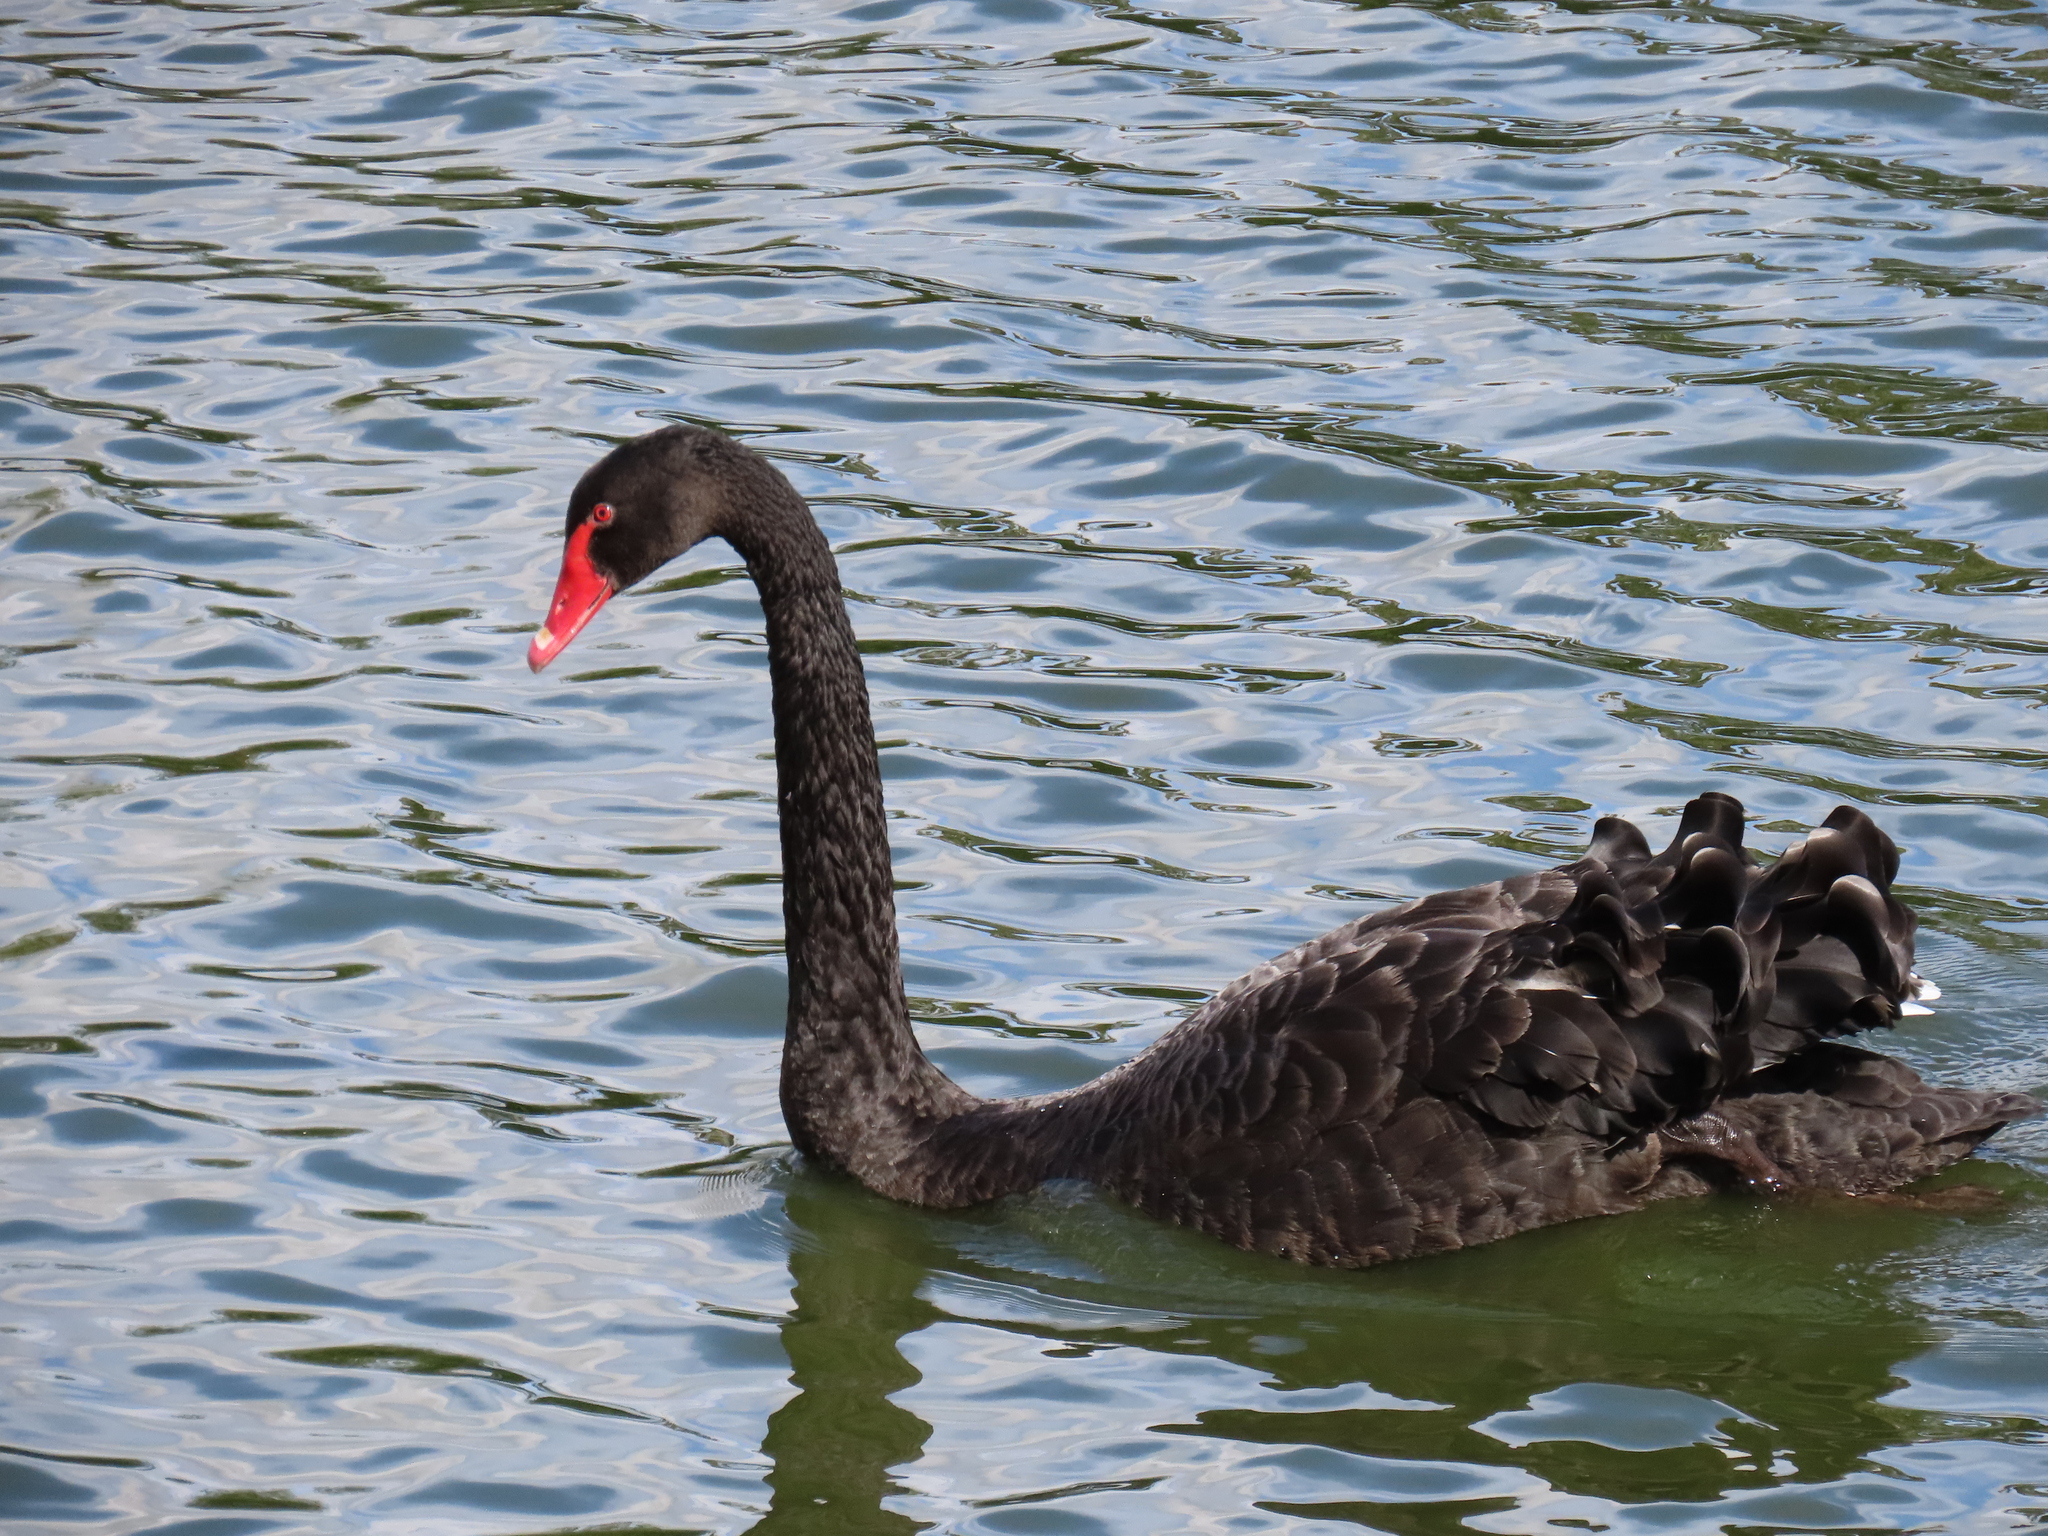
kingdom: Animalia
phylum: Chordata
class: Aves
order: Anseriformes
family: Anatidae
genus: Cygnus
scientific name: Cygnus atratus
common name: Black swan
